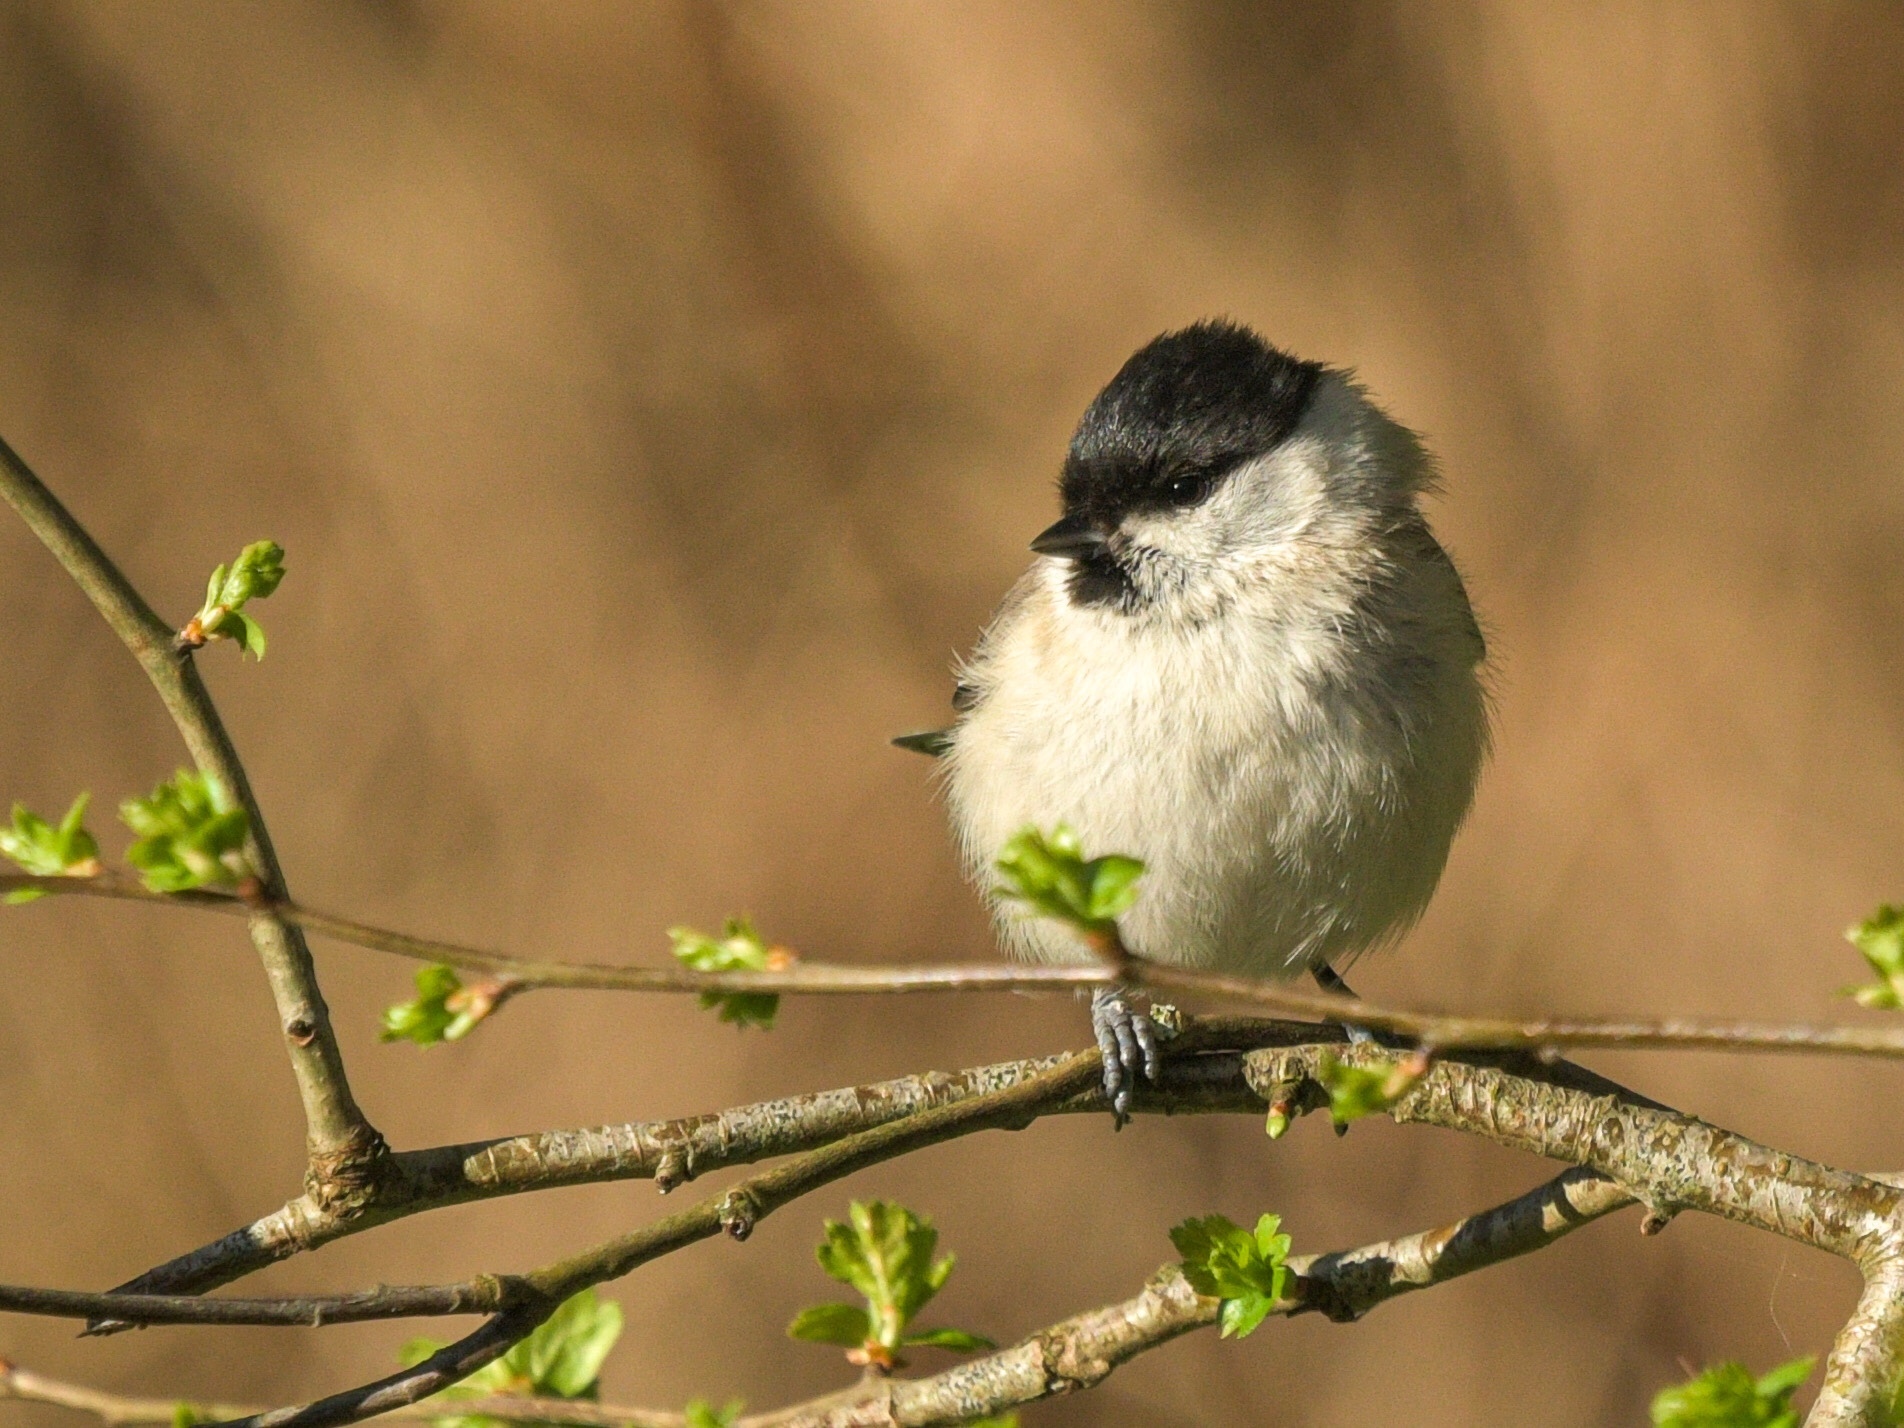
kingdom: Animalia
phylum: Chordata
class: Aves
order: Passeriformes
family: Paridae
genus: Poecile
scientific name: Poecile palustris
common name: Marsh tit
